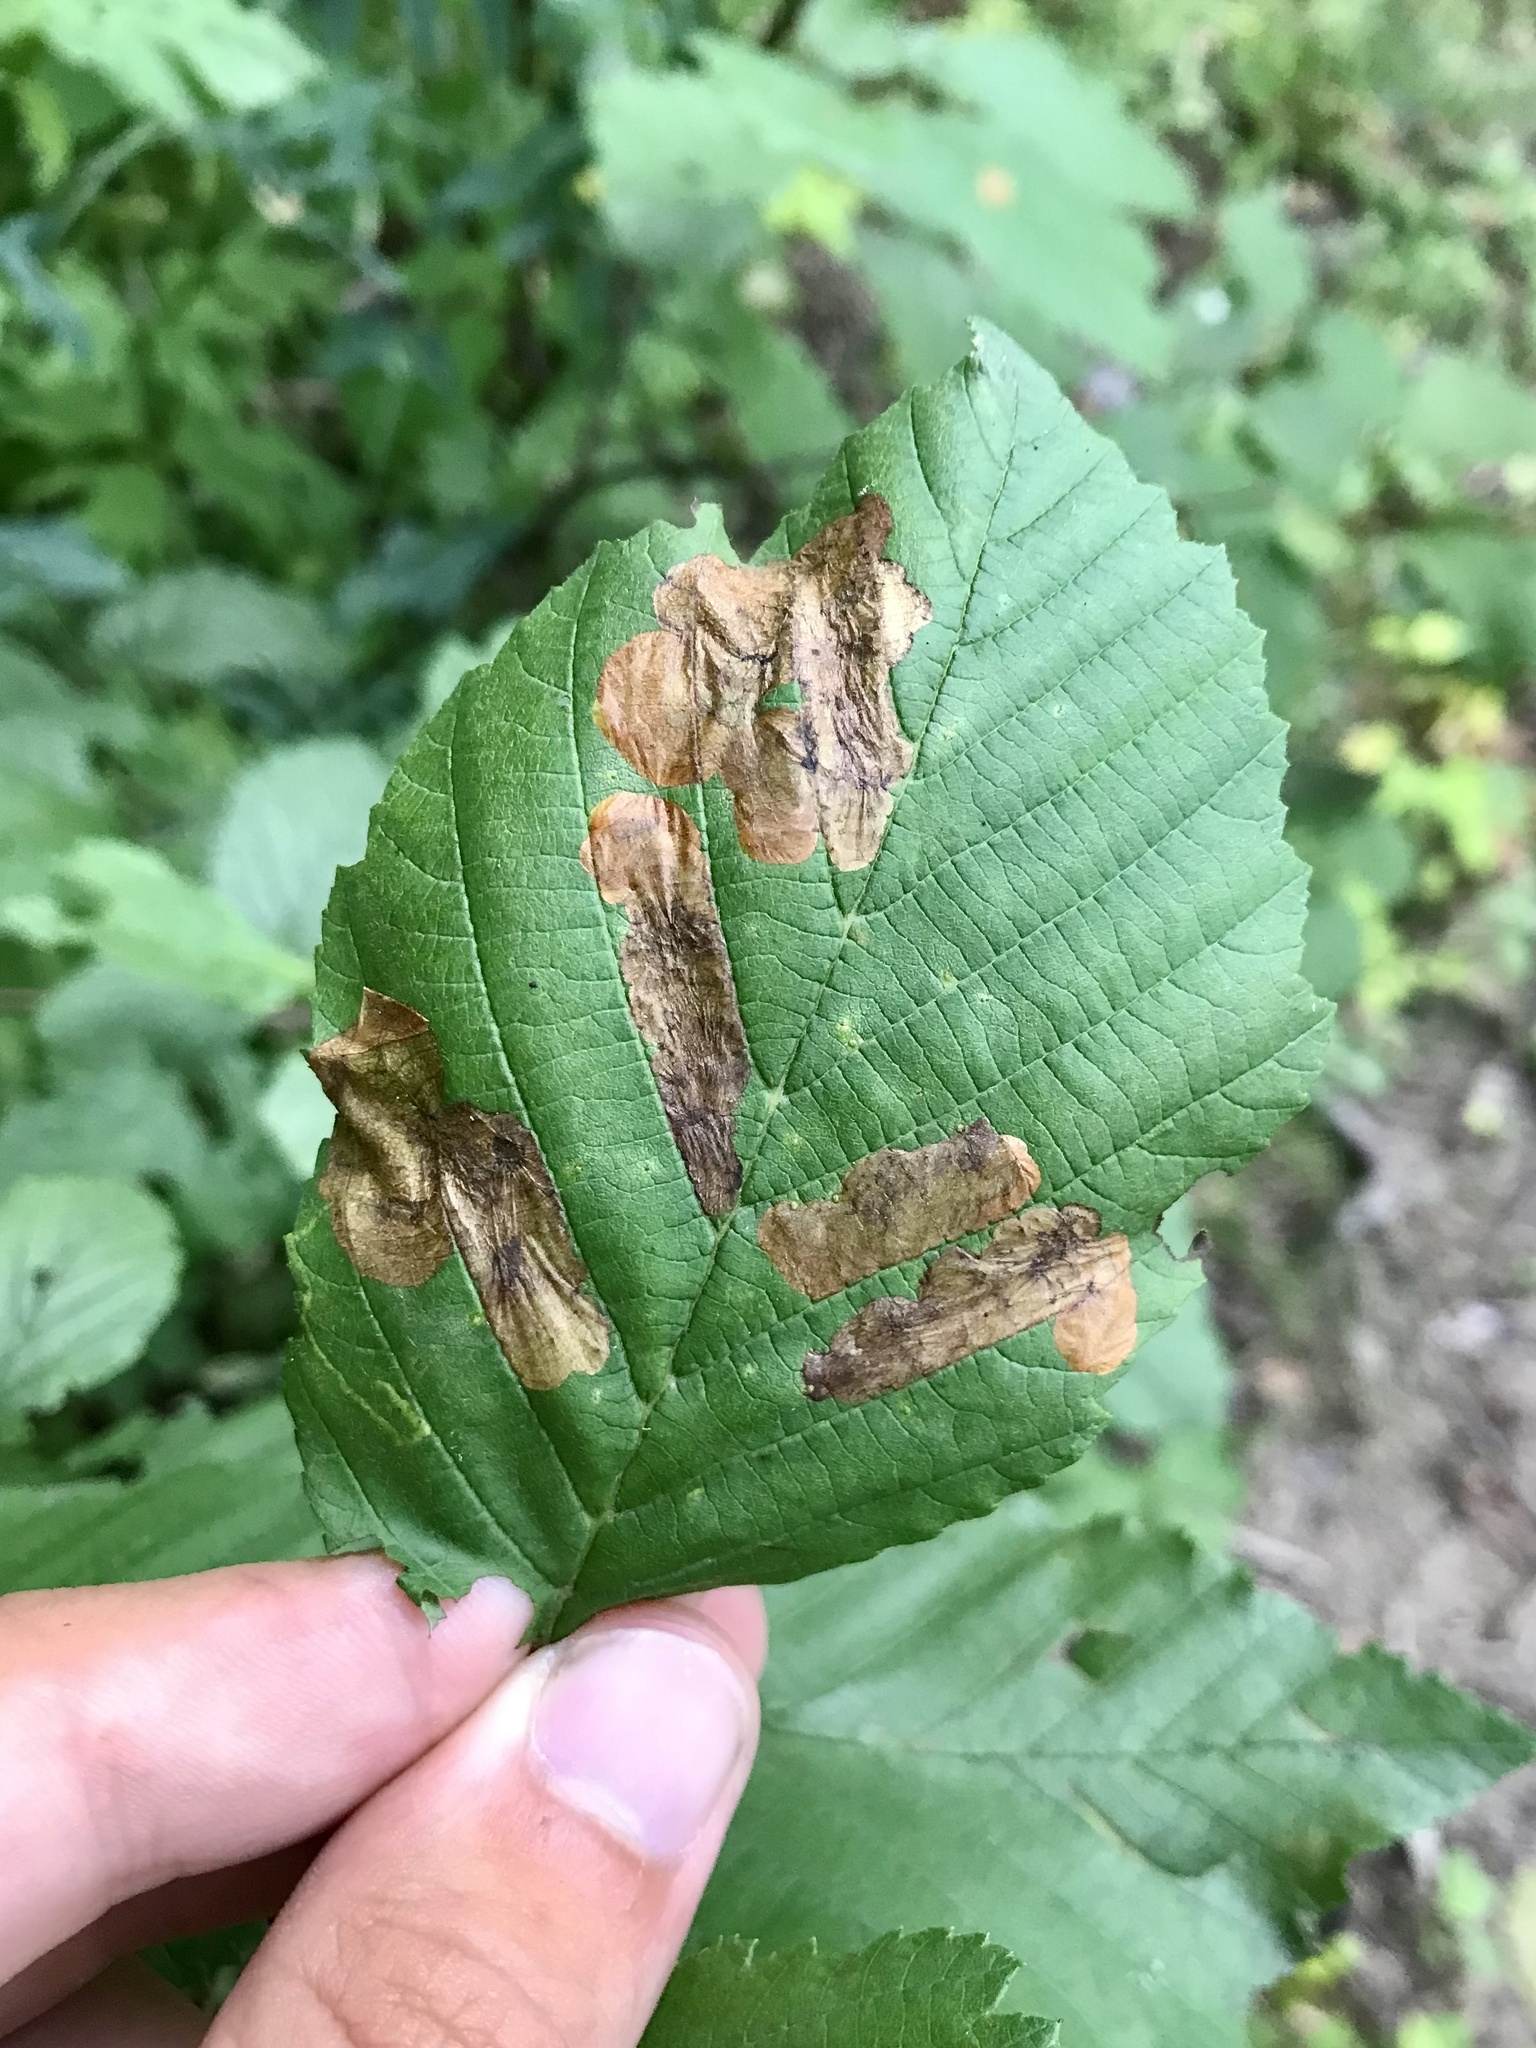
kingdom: Animalia
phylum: Arthropoda
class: Insecta
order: Hymenoptera
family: Tenthredinidae
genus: Fenusa
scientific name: Fenusa dohrnii
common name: European alder leafminer
